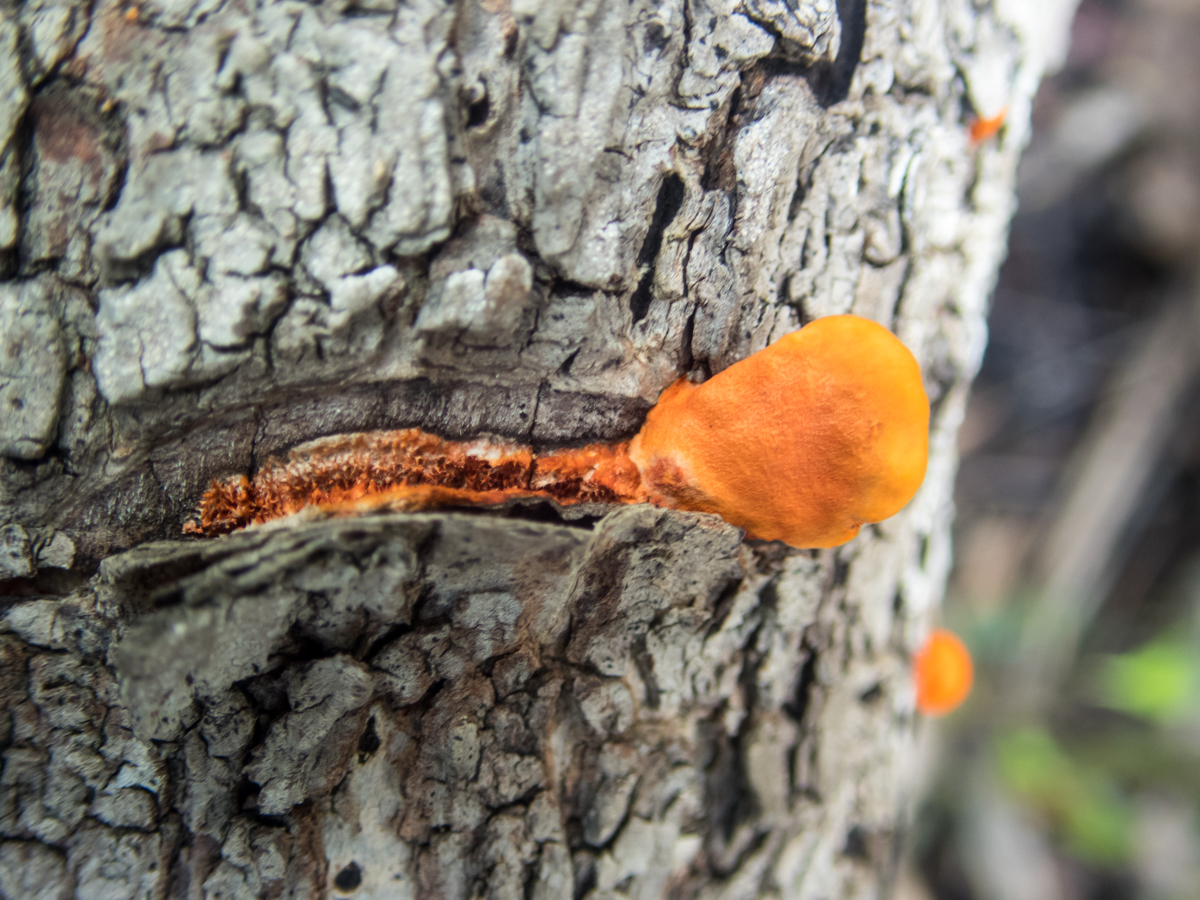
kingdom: Fungi
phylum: Basidiomycota
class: Agaricomycetes
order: Polyporales
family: Polyporaceae
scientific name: Polyporaceae
